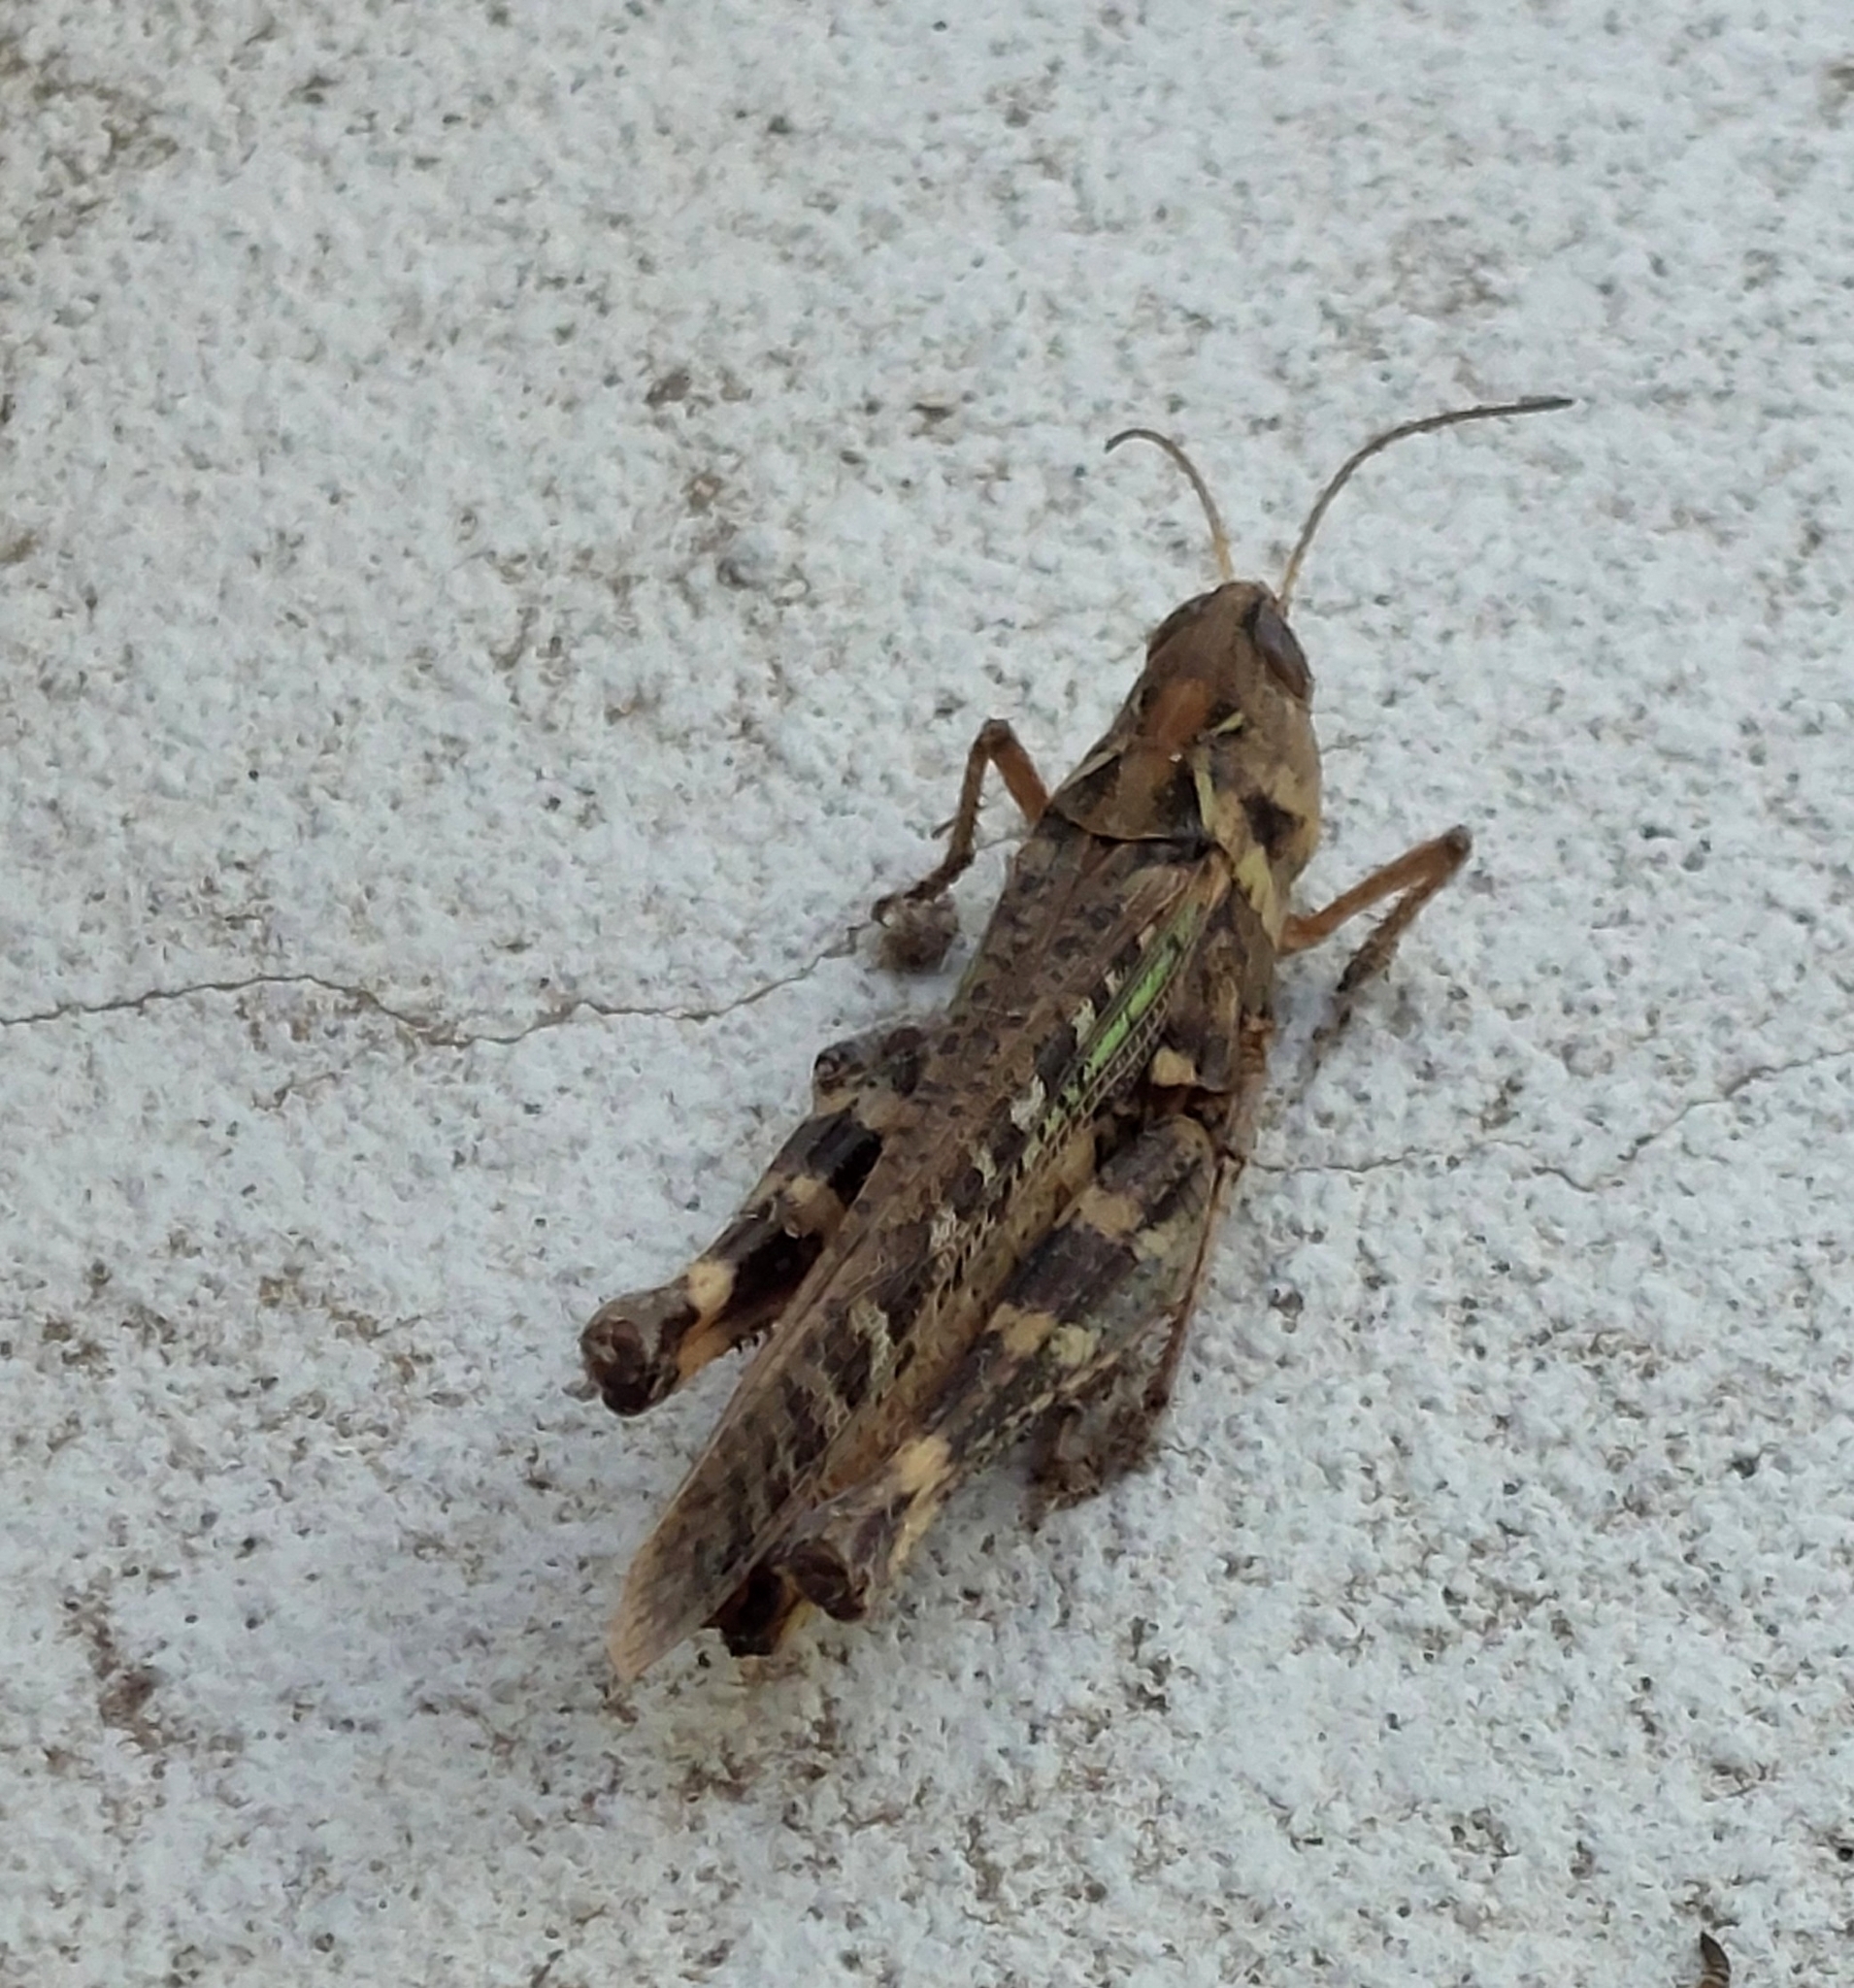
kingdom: Animalia
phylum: Arthropoda
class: Insecta
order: Orthoptera
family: Acrididae
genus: Rhammatocerus
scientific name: Rhammatocerus pictus
